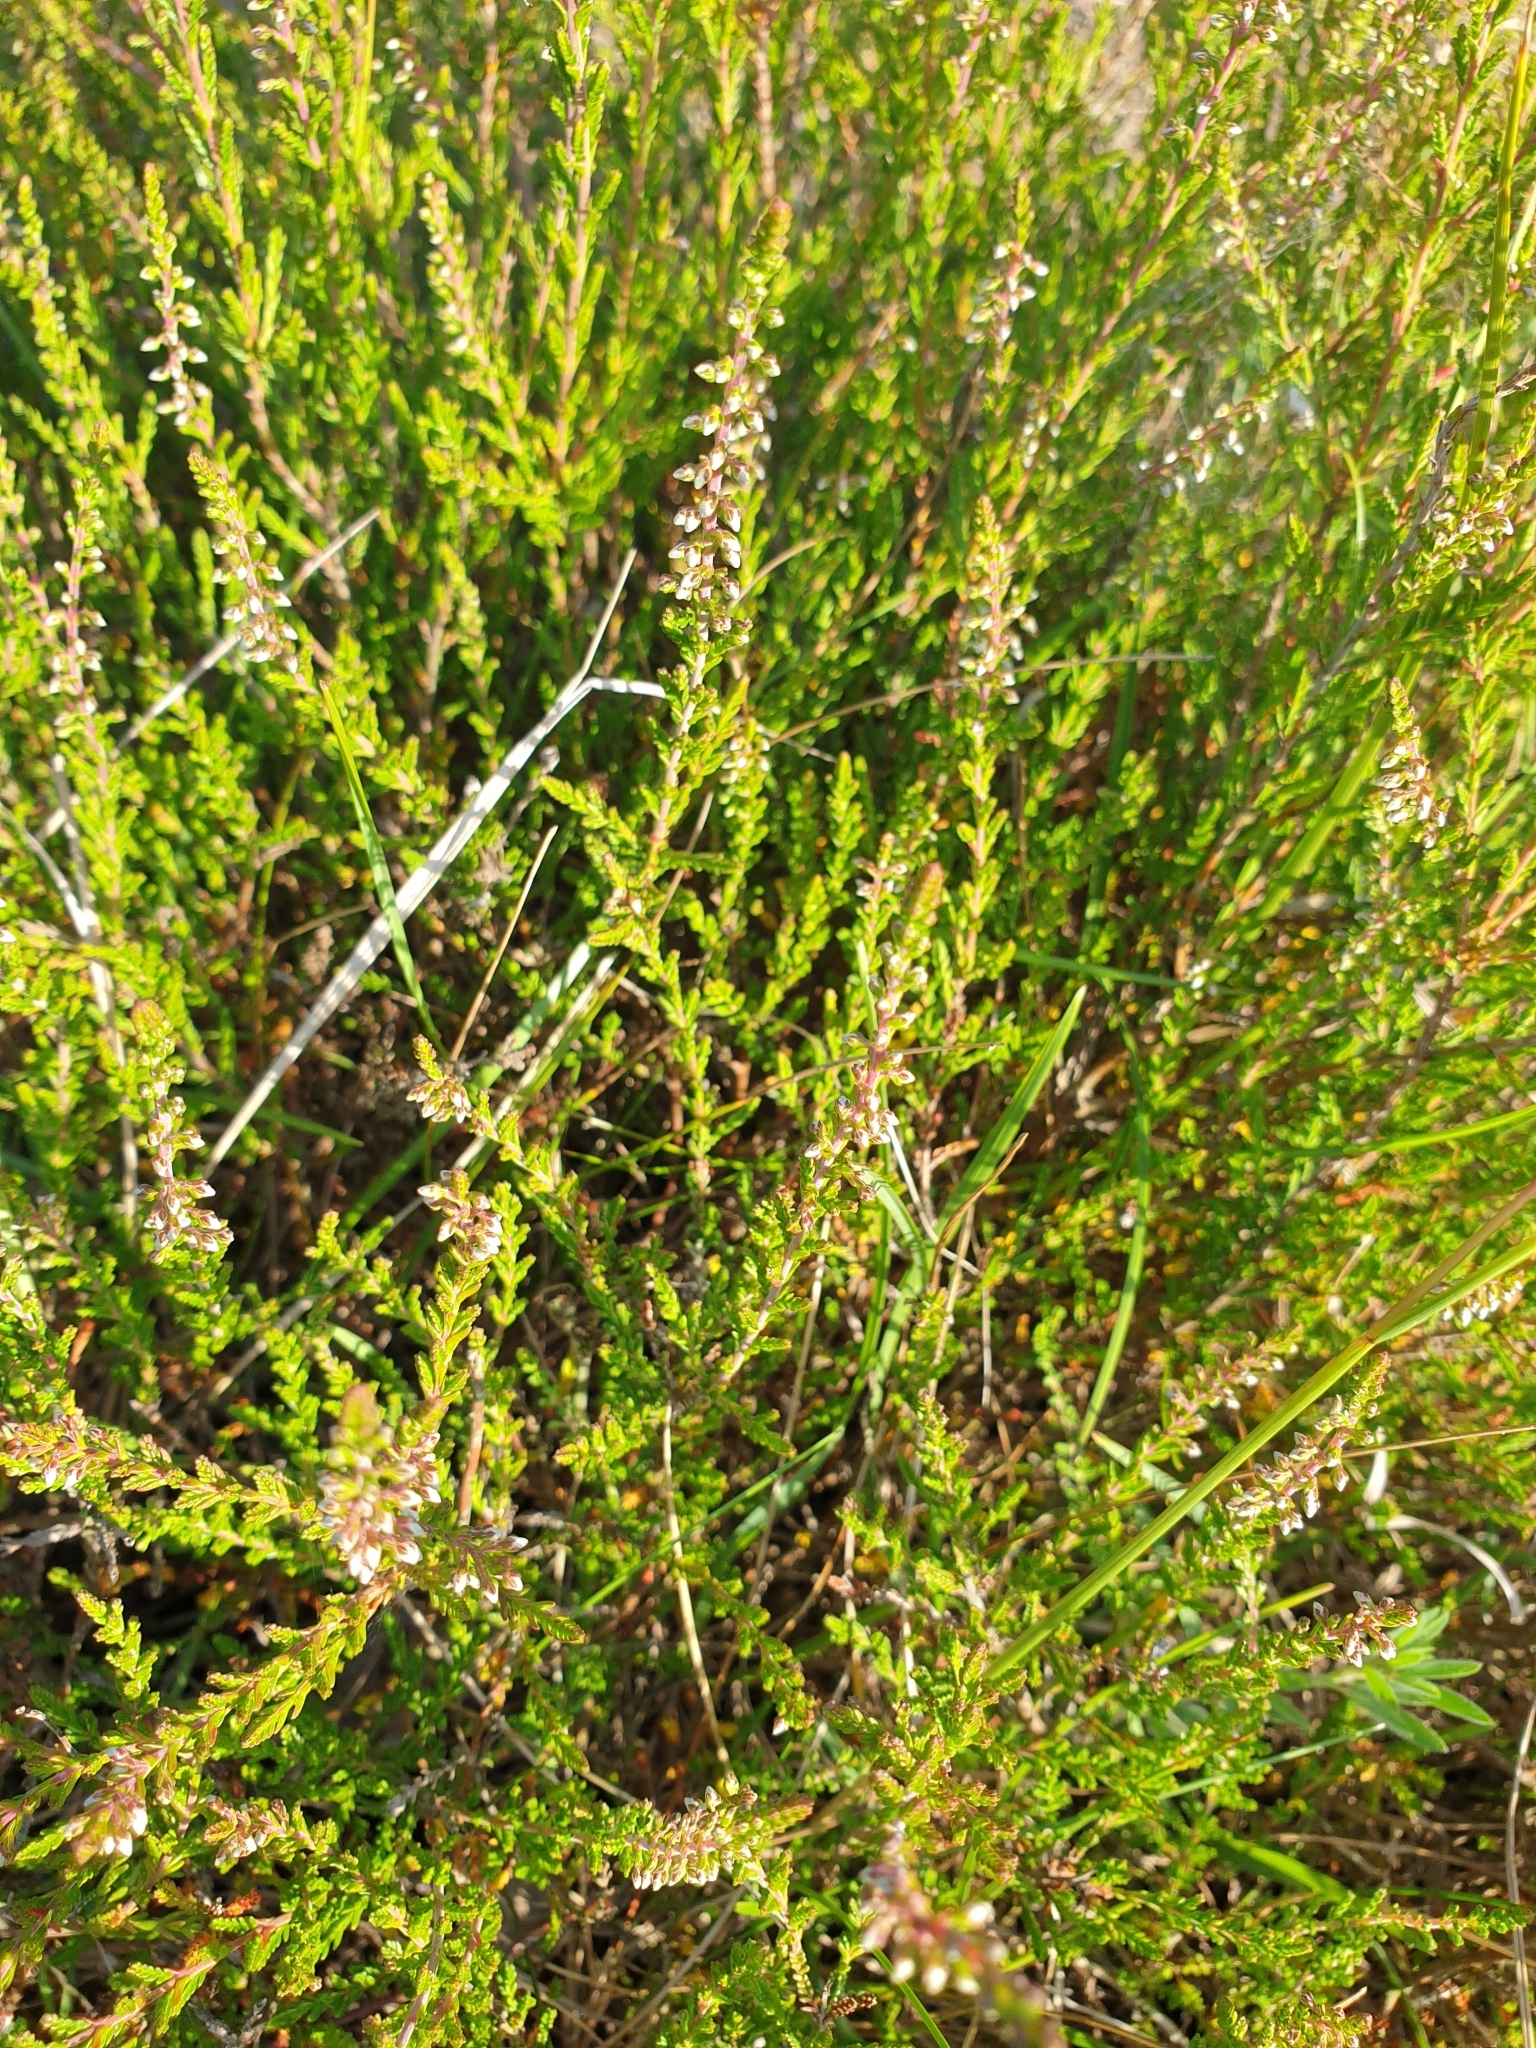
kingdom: Plantae
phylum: Tracheophyta
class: Magnoliopsida
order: Ericales
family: Ericaceae
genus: Calluna
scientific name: Calluna vulgaris
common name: Heather
